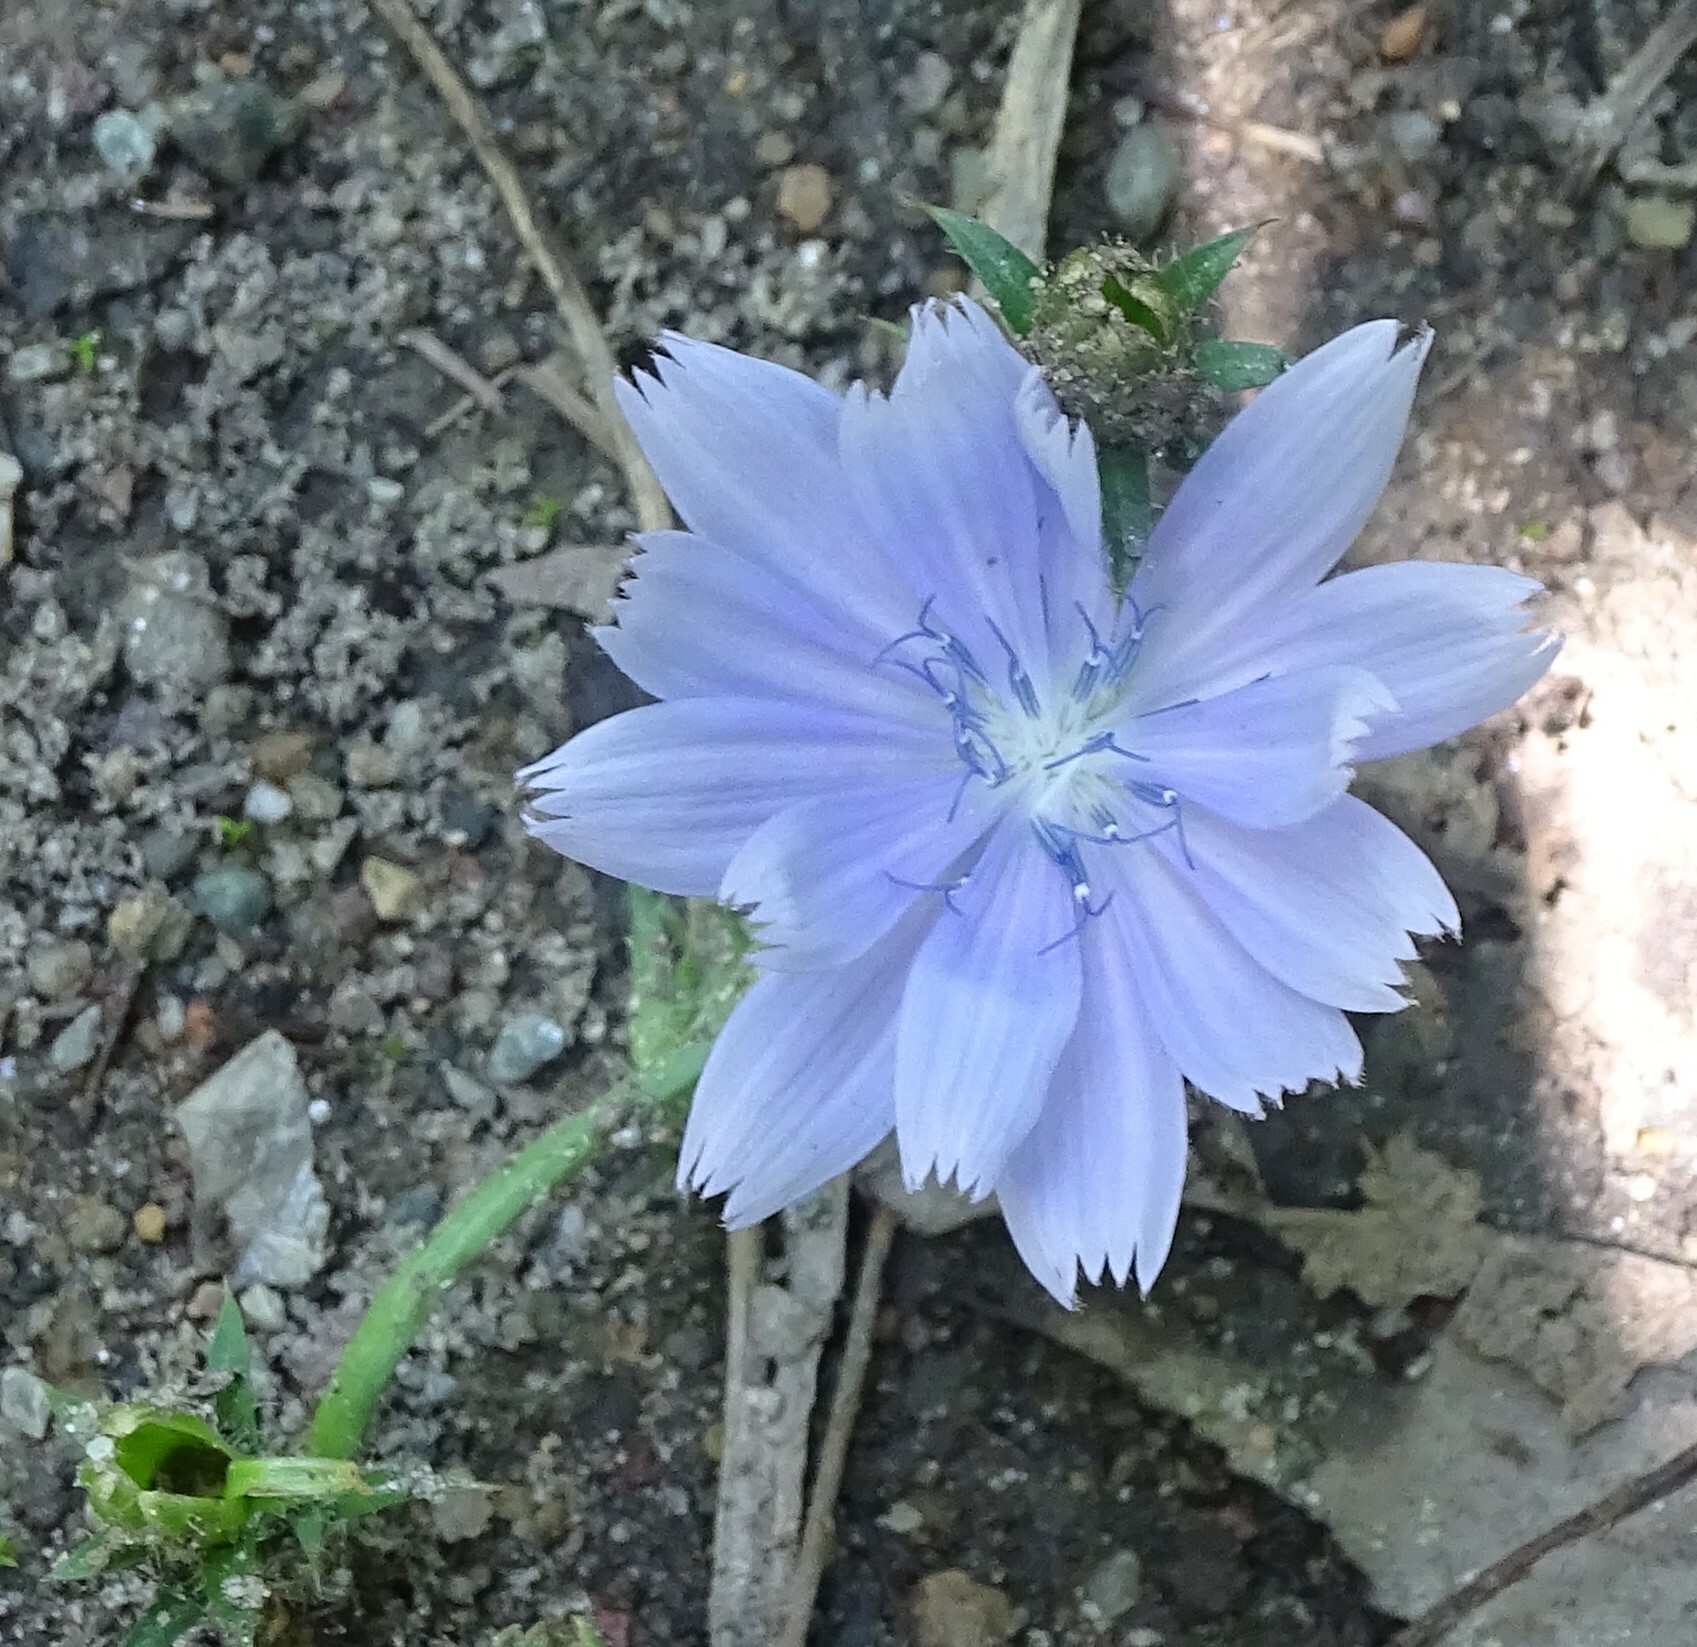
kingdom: Plantae
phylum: Tracheophyta
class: Magnoliopsida
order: Asterales
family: Asteraceae
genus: Cichorium
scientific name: Cichorium intybus
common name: Chicory
